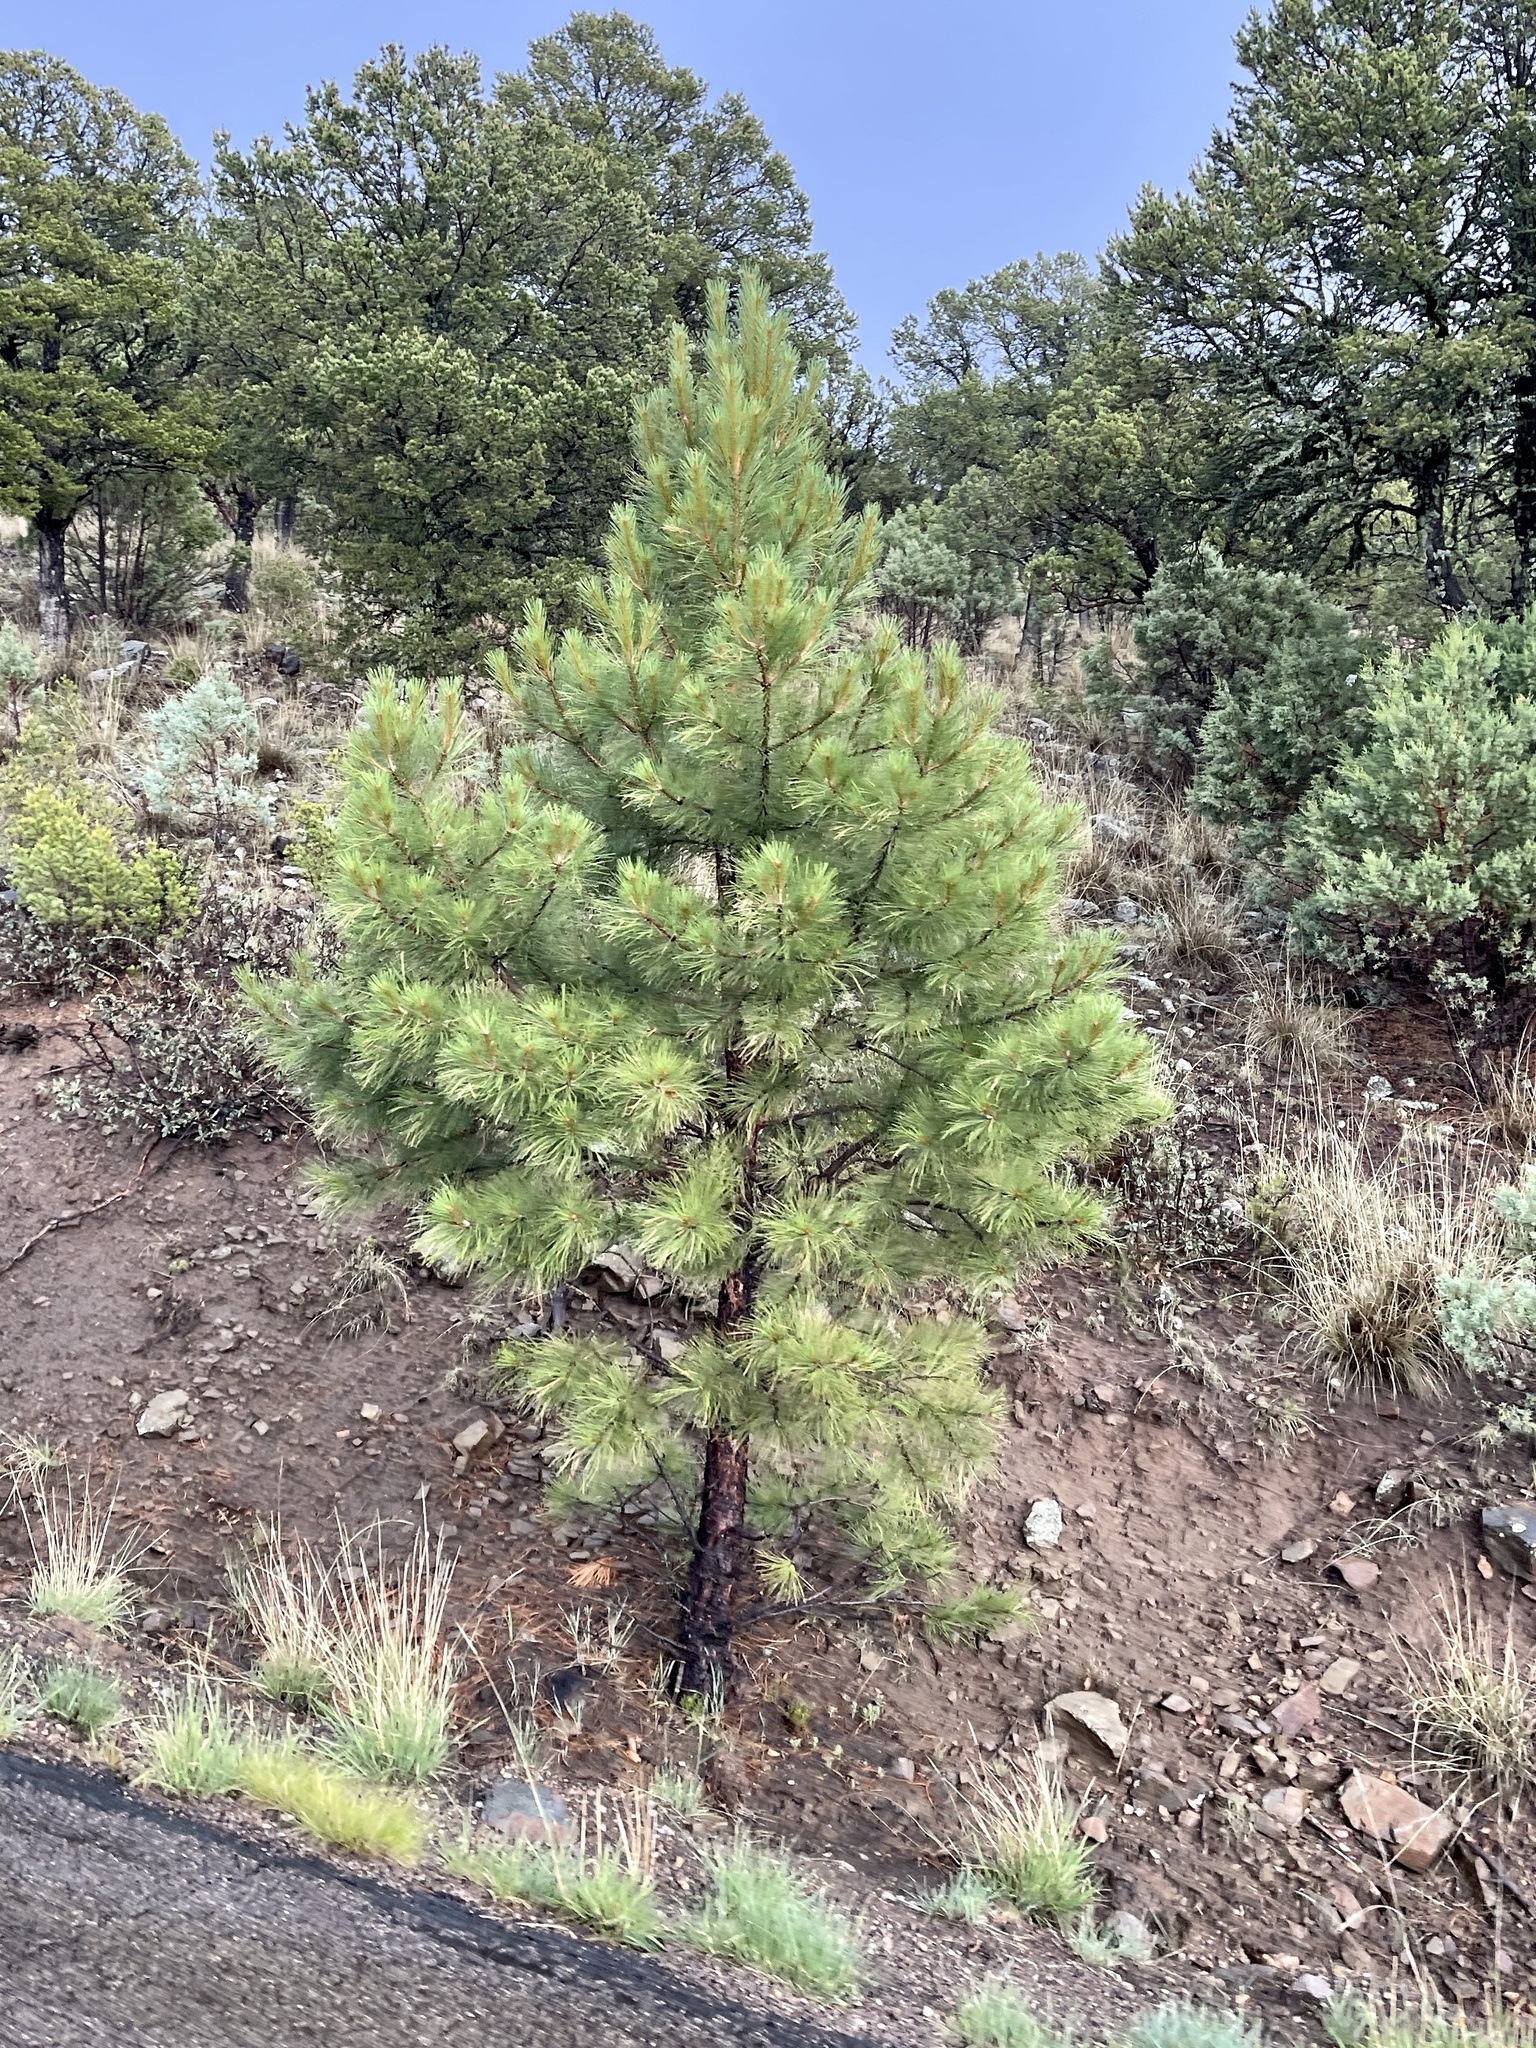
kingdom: Plantae
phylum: Tracheophyta
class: Pinopsida
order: Pinales
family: Pinaceae
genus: Pinus
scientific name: Pinus ponderosa
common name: Western yellow-pine
